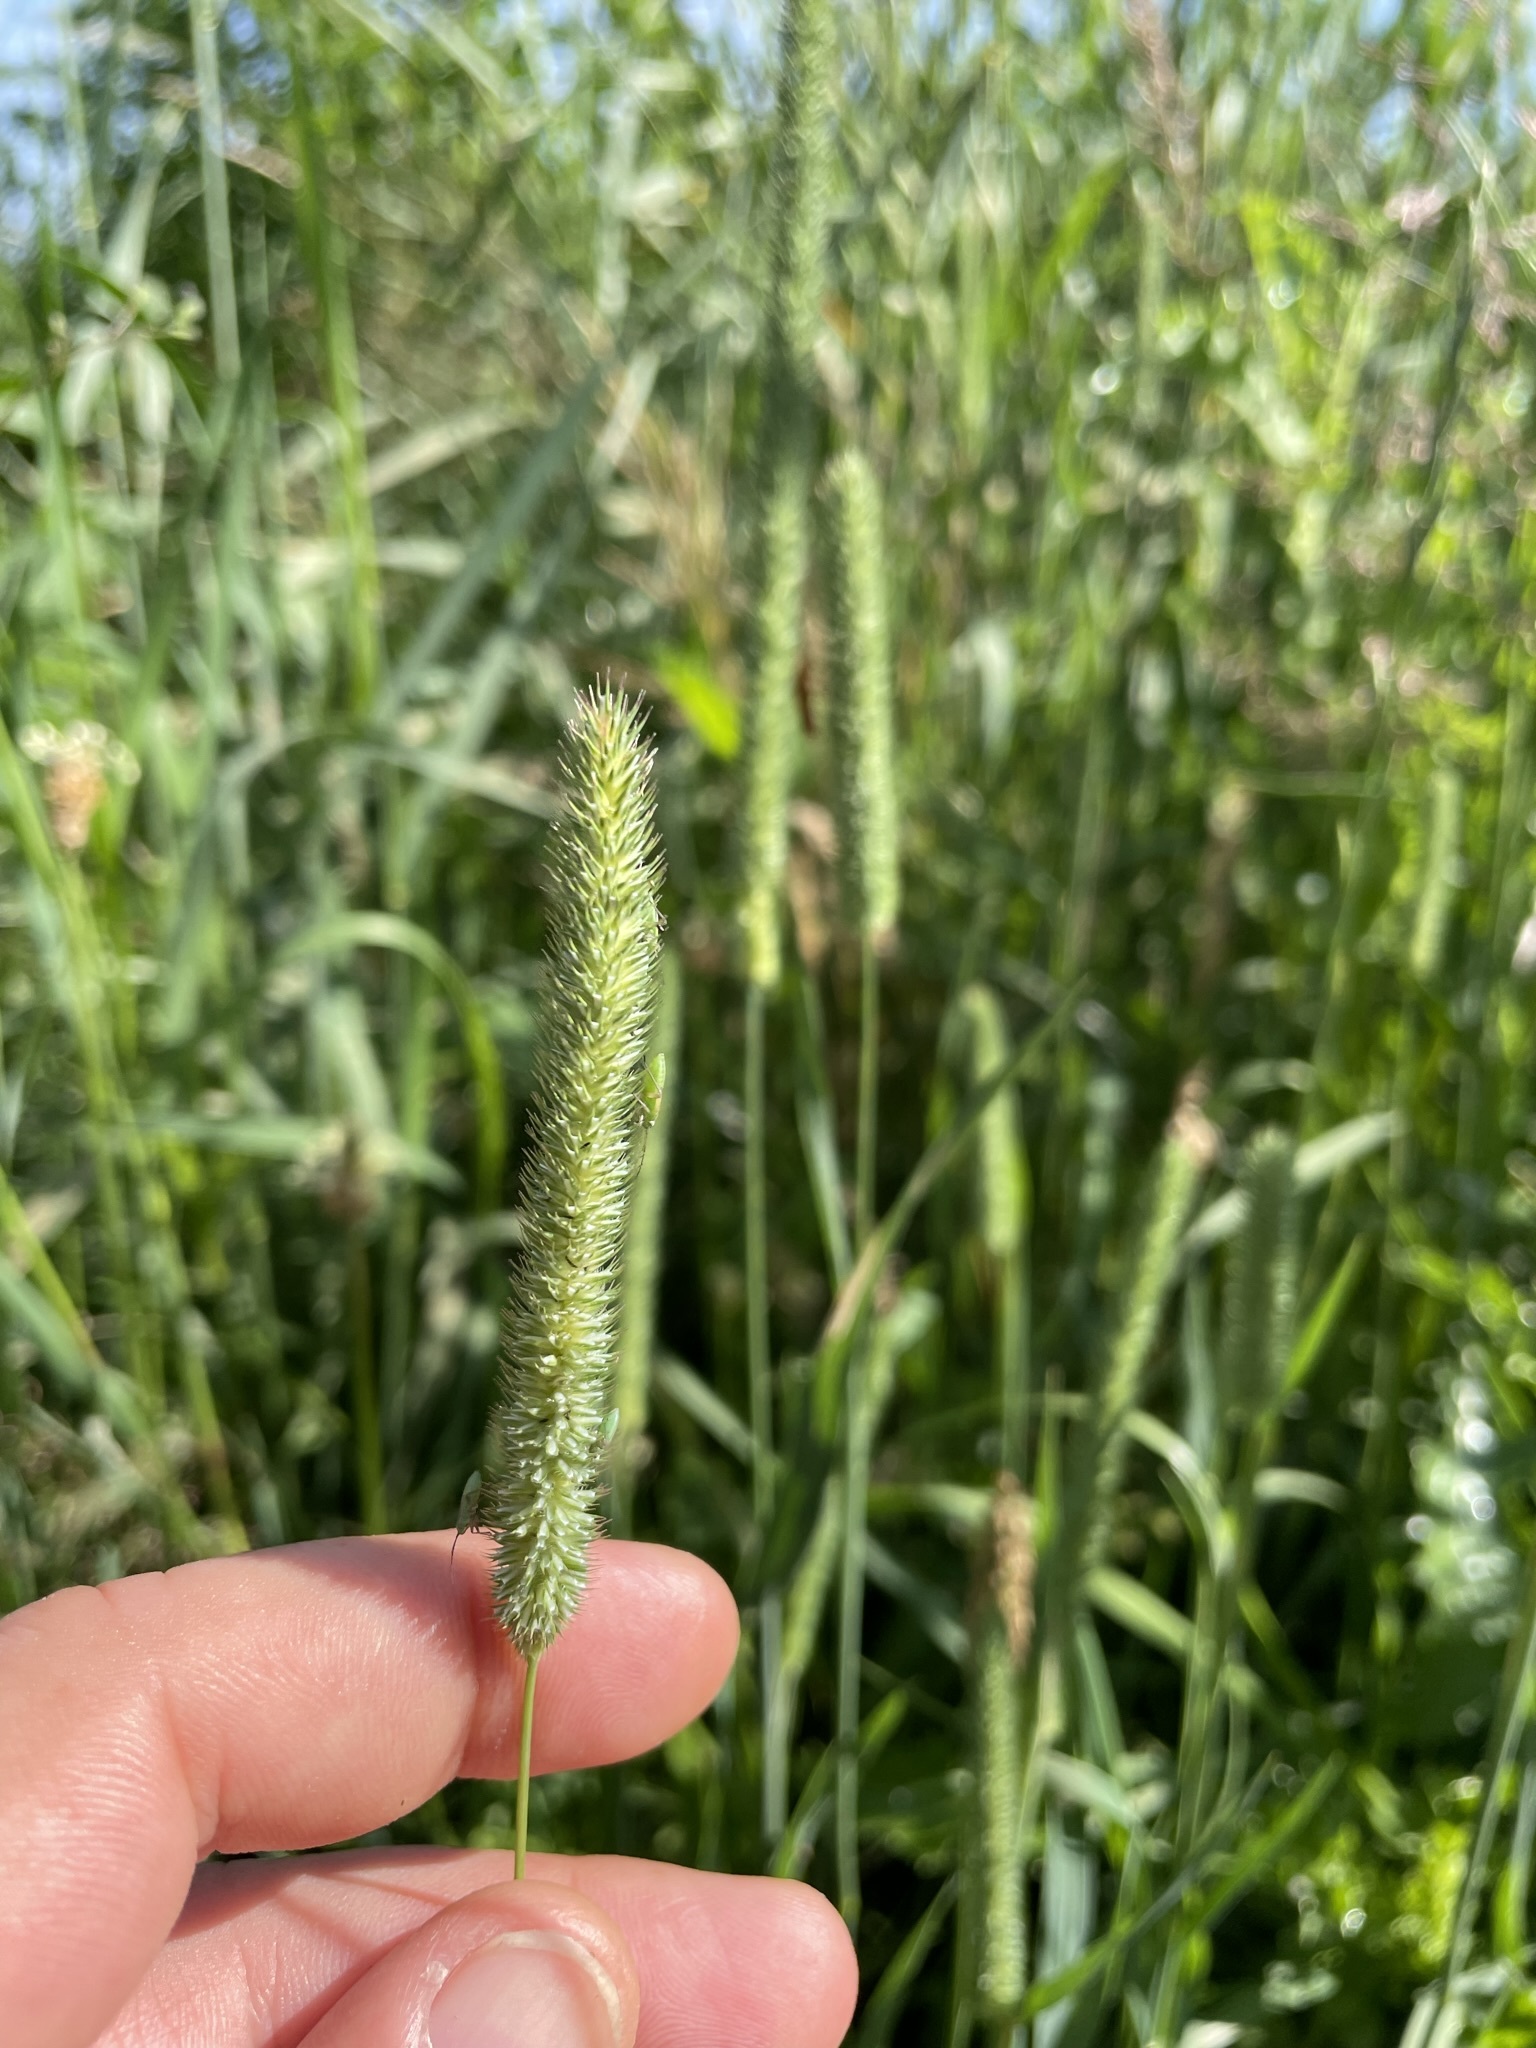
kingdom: Plantae
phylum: Tracheophyta
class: Liliopsida
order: Poales
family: Poaceae
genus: Phleum
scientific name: Phleum pratense
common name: Timothy grass
